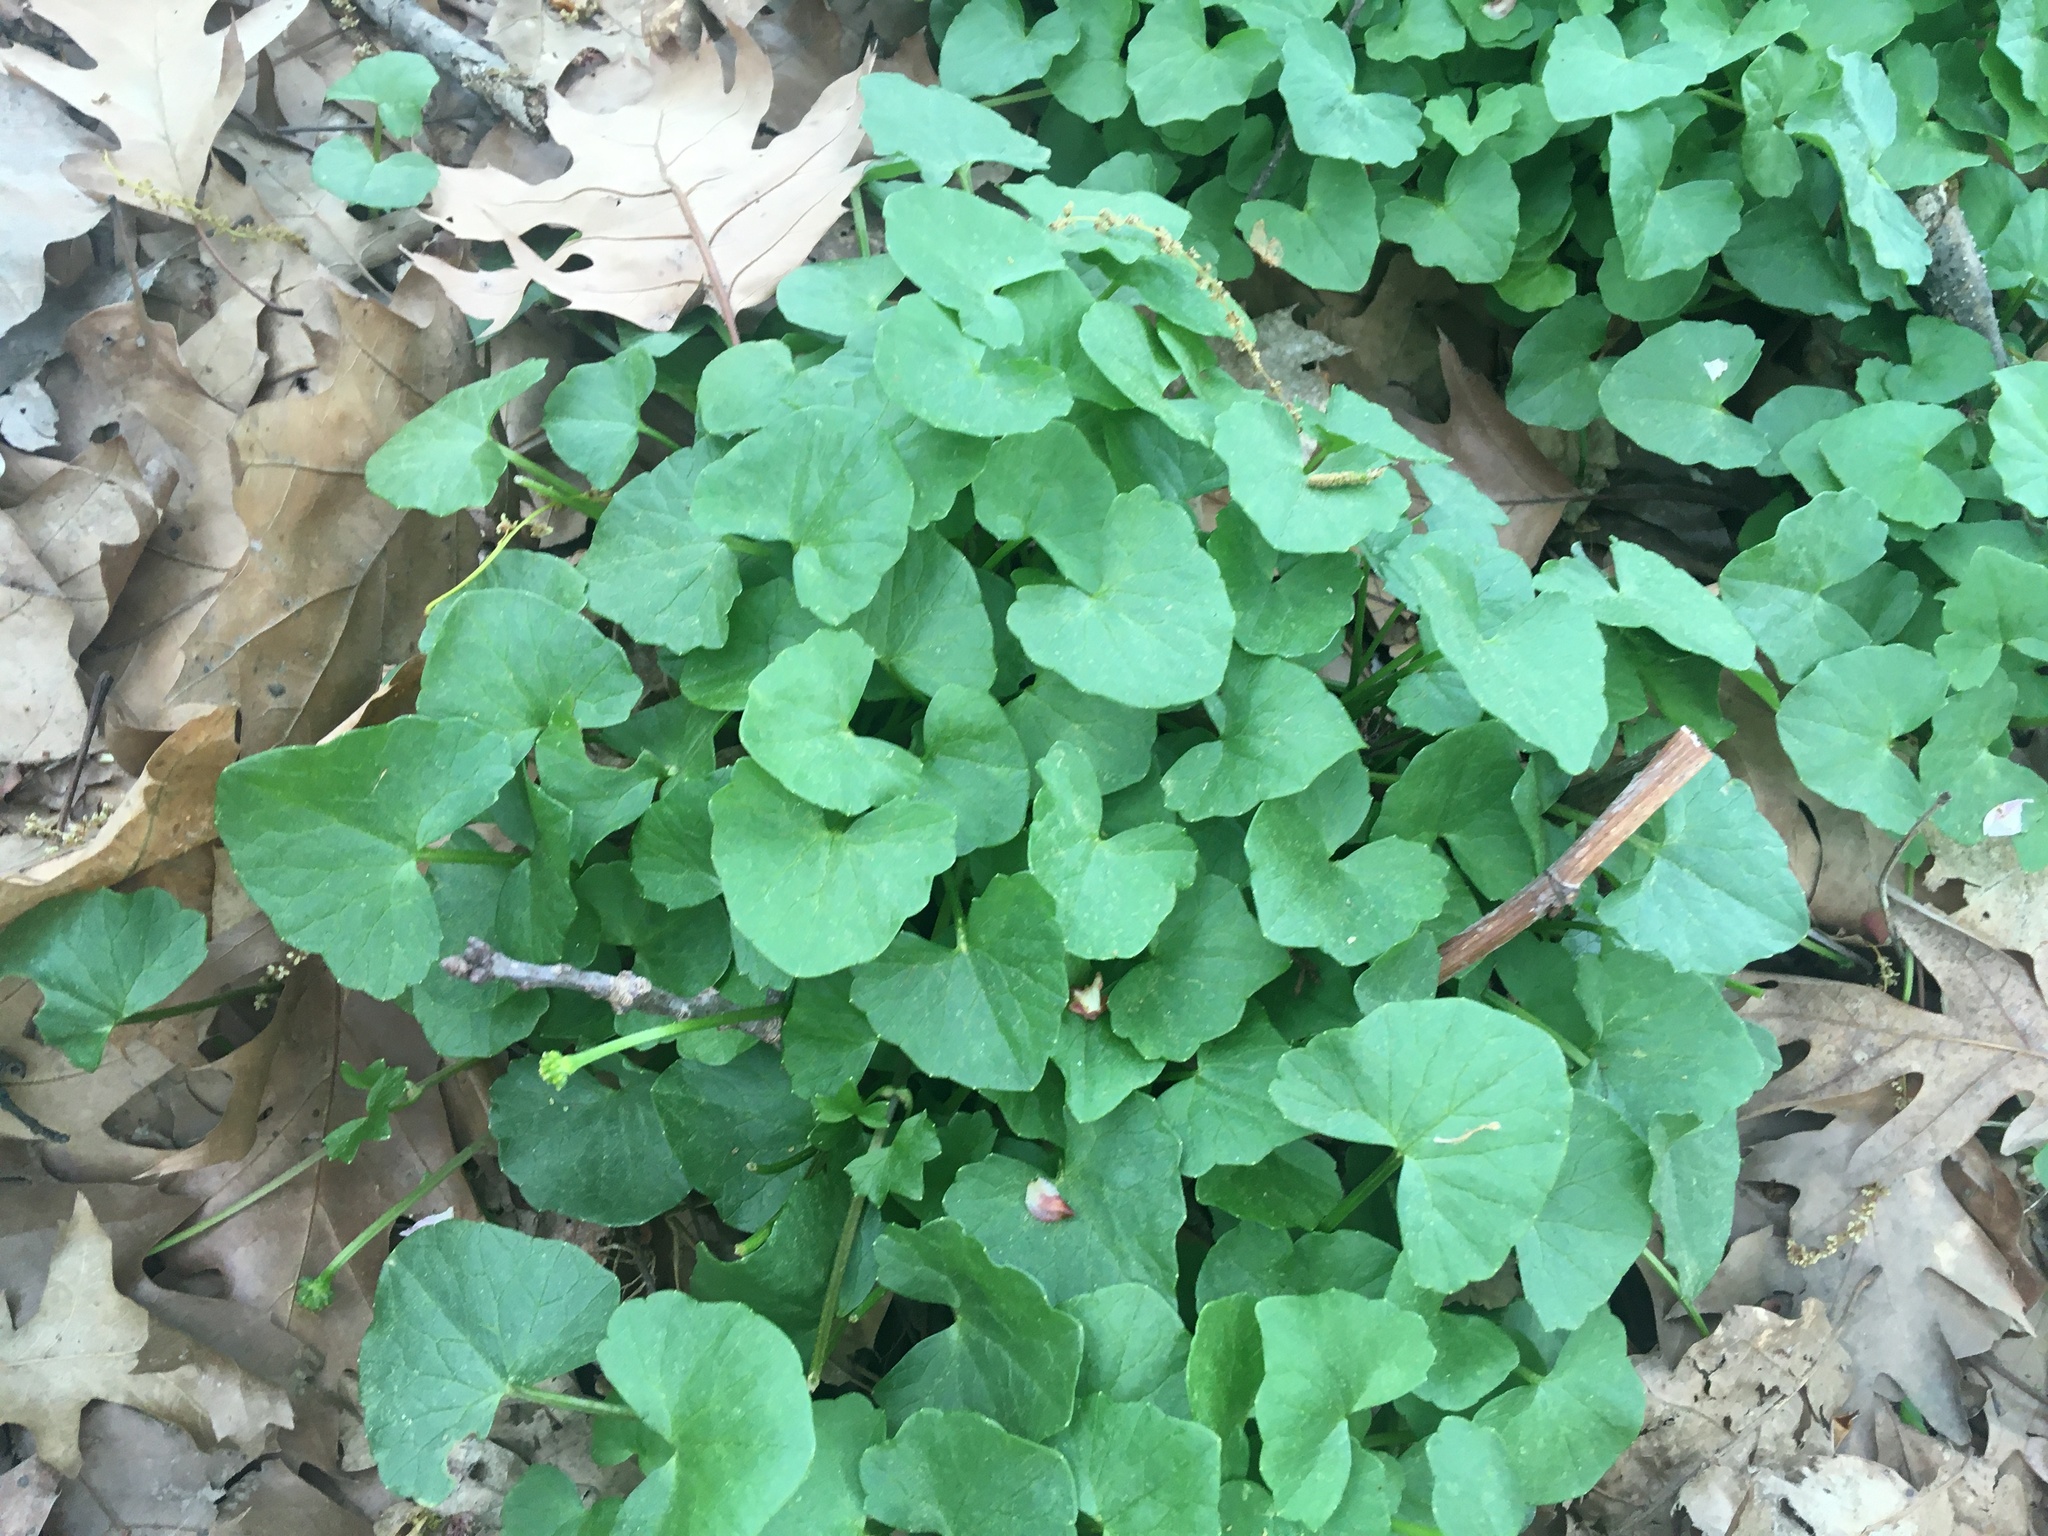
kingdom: Plantae
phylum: Tracheophyta
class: Magnoliopsida
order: Ranunculales
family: Ranunculaceae
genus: Ficaria
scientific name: Ficaria verna
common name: Lesser celandine
